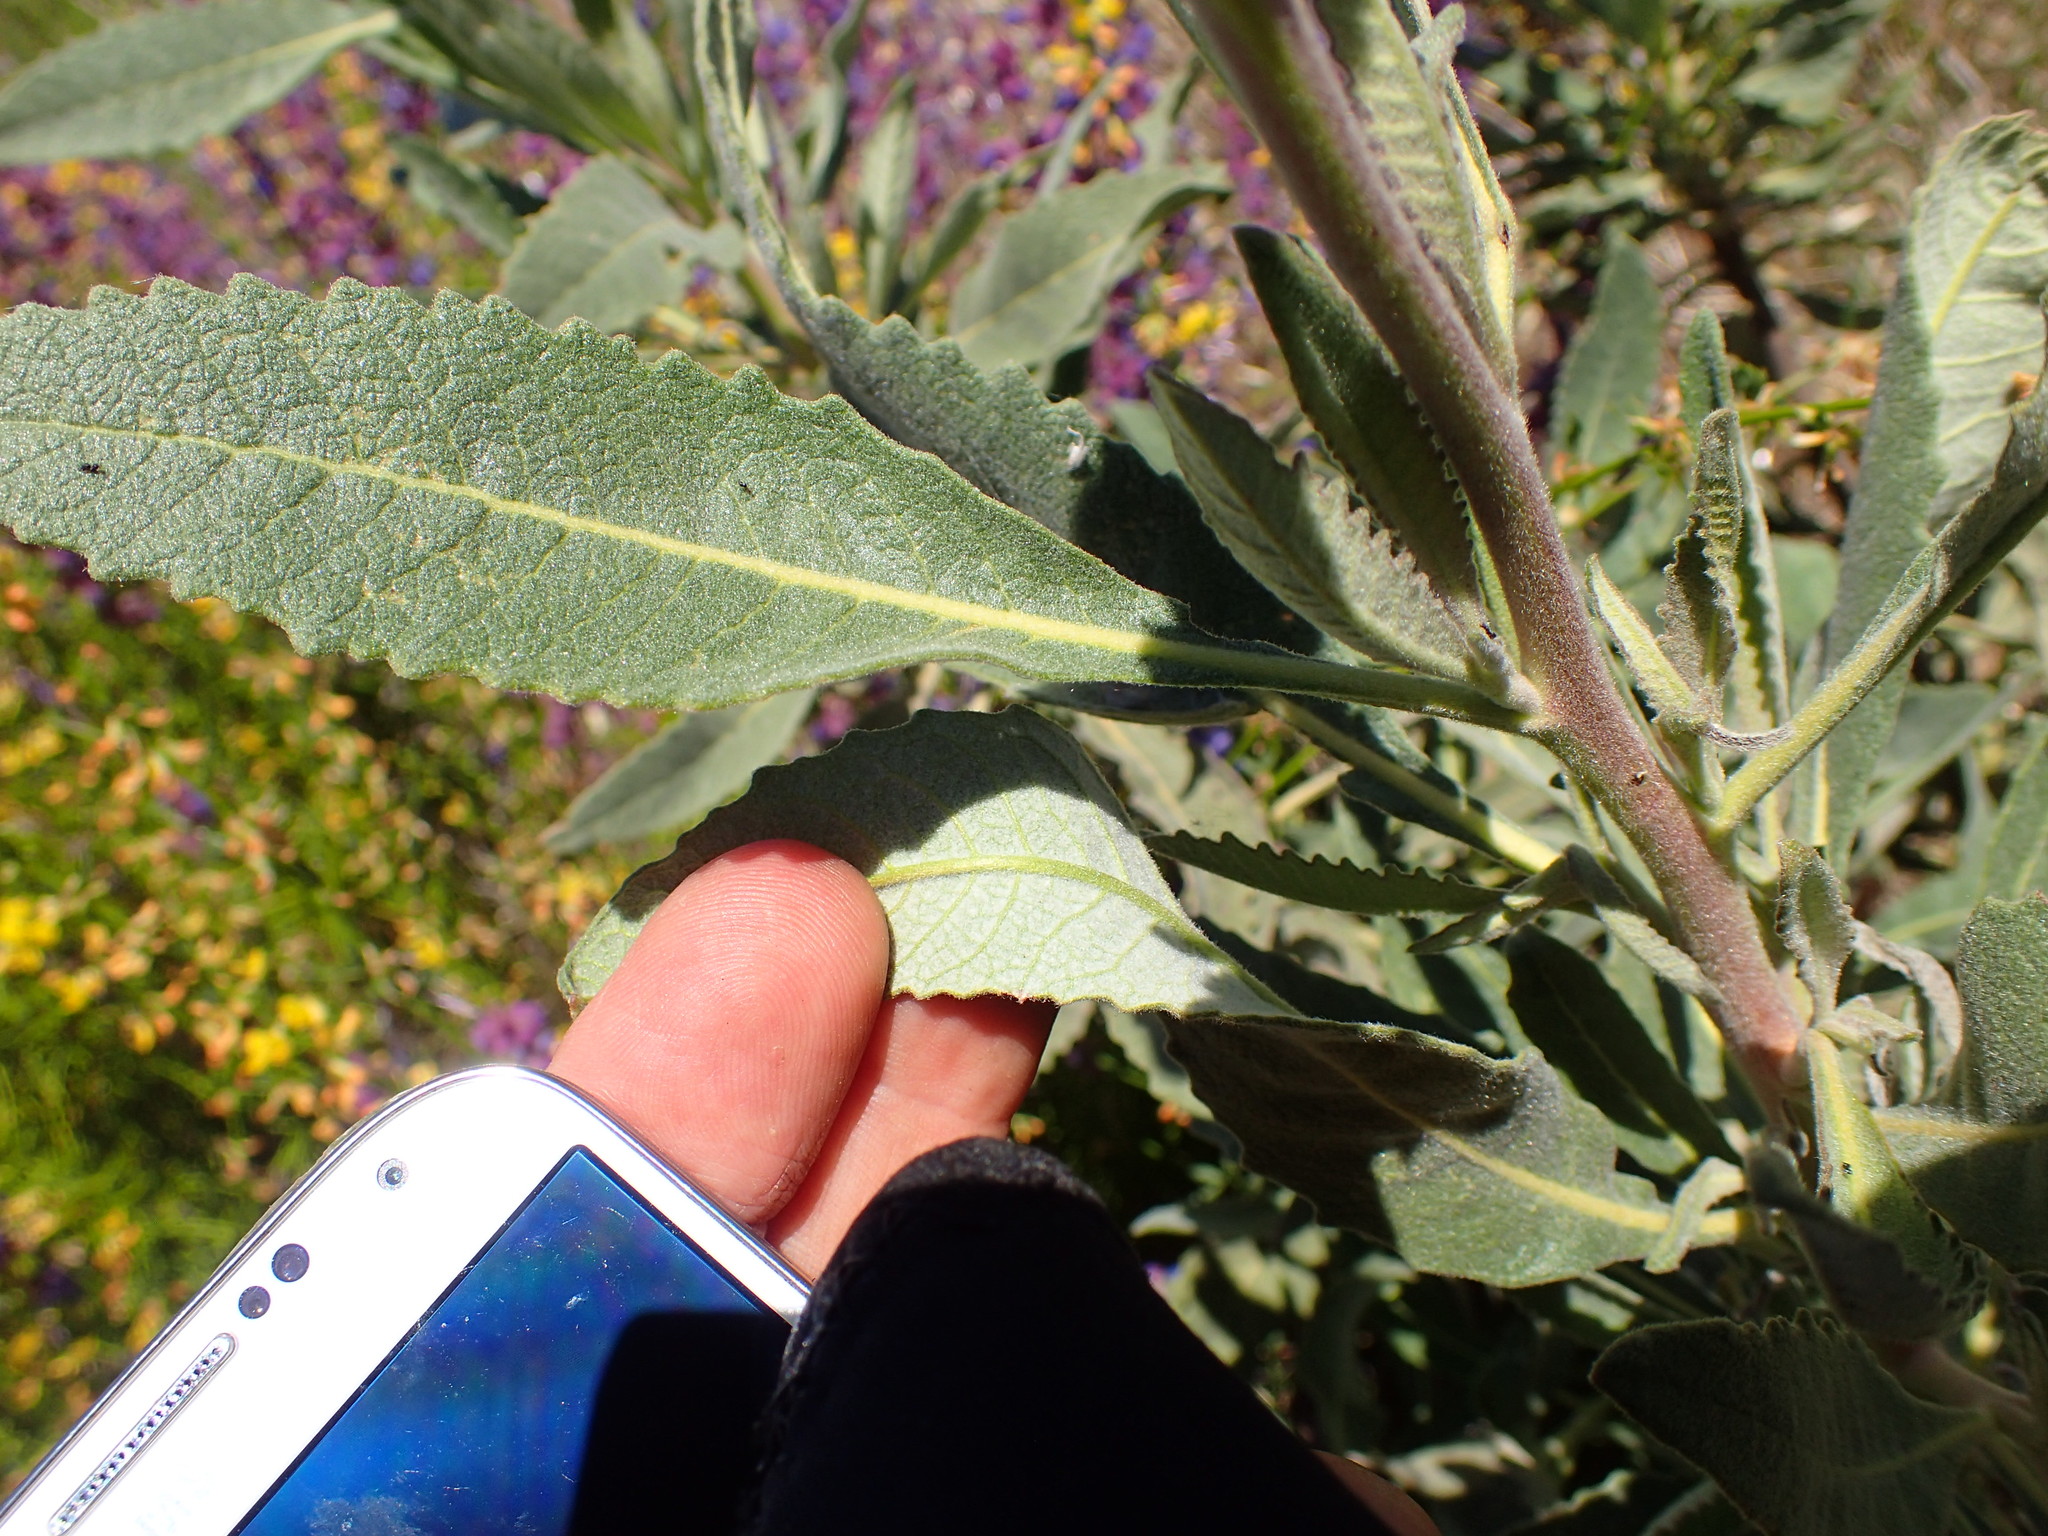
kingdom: Plantae
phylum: Tracheophyta
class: Magnoliopsida
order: Boraginales
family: Namaceae
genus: Eriodictyon
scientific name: Eriodictyon crassifolium
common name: Thick-leaf yerba-santa
